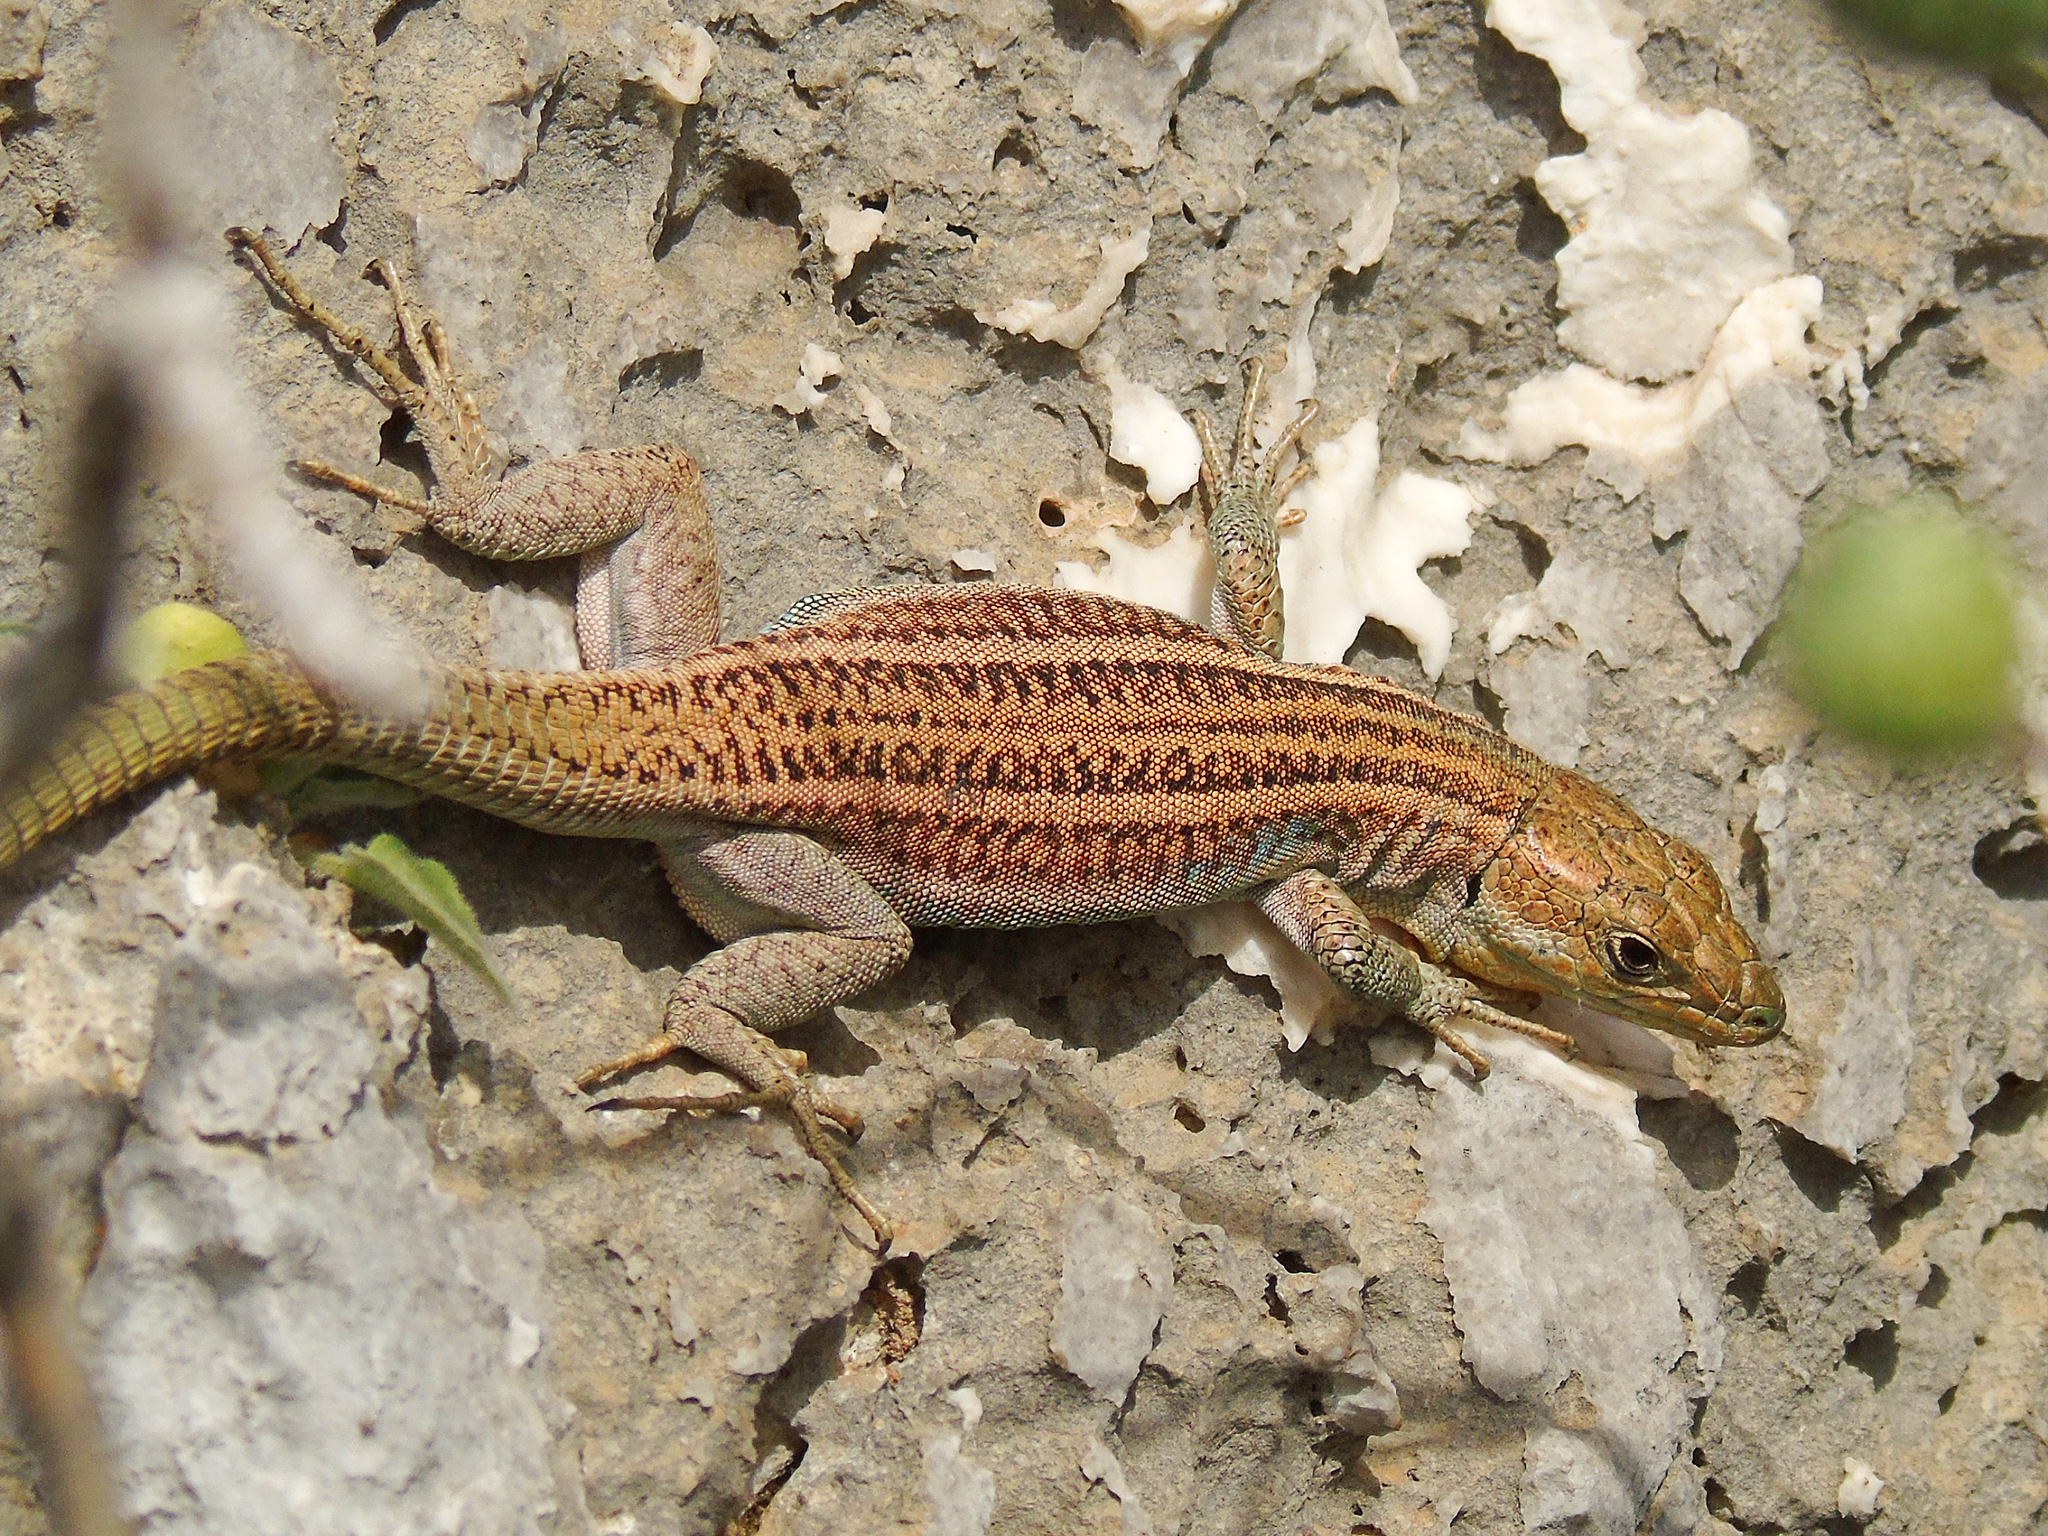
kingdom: Animalia
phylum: Chordata
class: Squamata
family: Lacertidae
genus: Podarcis
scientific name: Podarcis peloponnesiacus
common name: Peloponnese wall lizard
